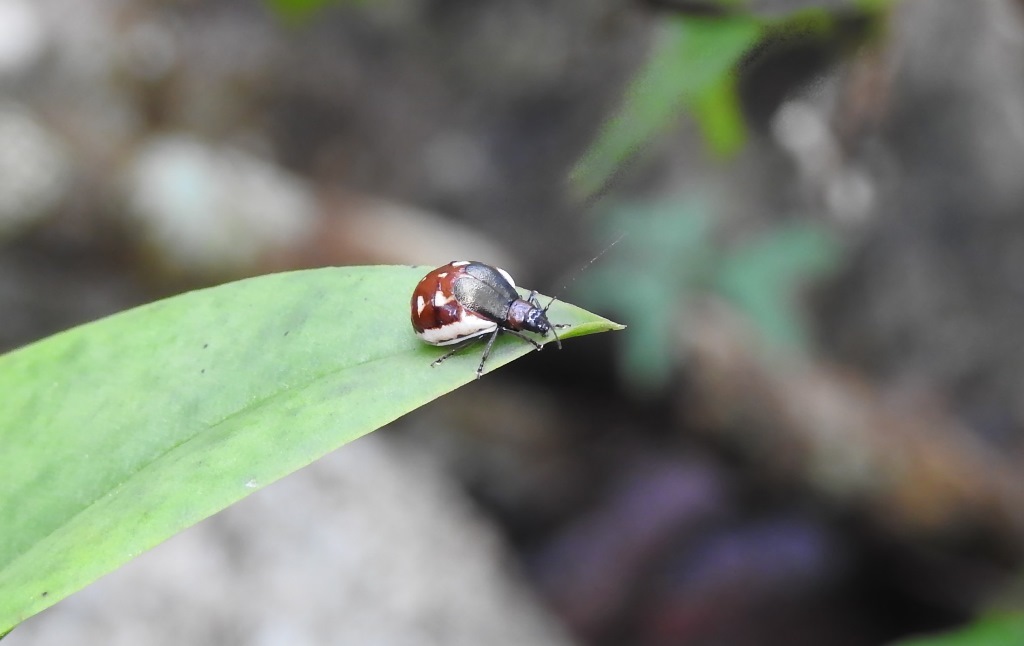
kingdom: Animalia
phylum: Arthropoda
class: Insecta
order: Coleoptera
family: Chrysomelidae
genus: Metacycla
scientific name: Metacycla
